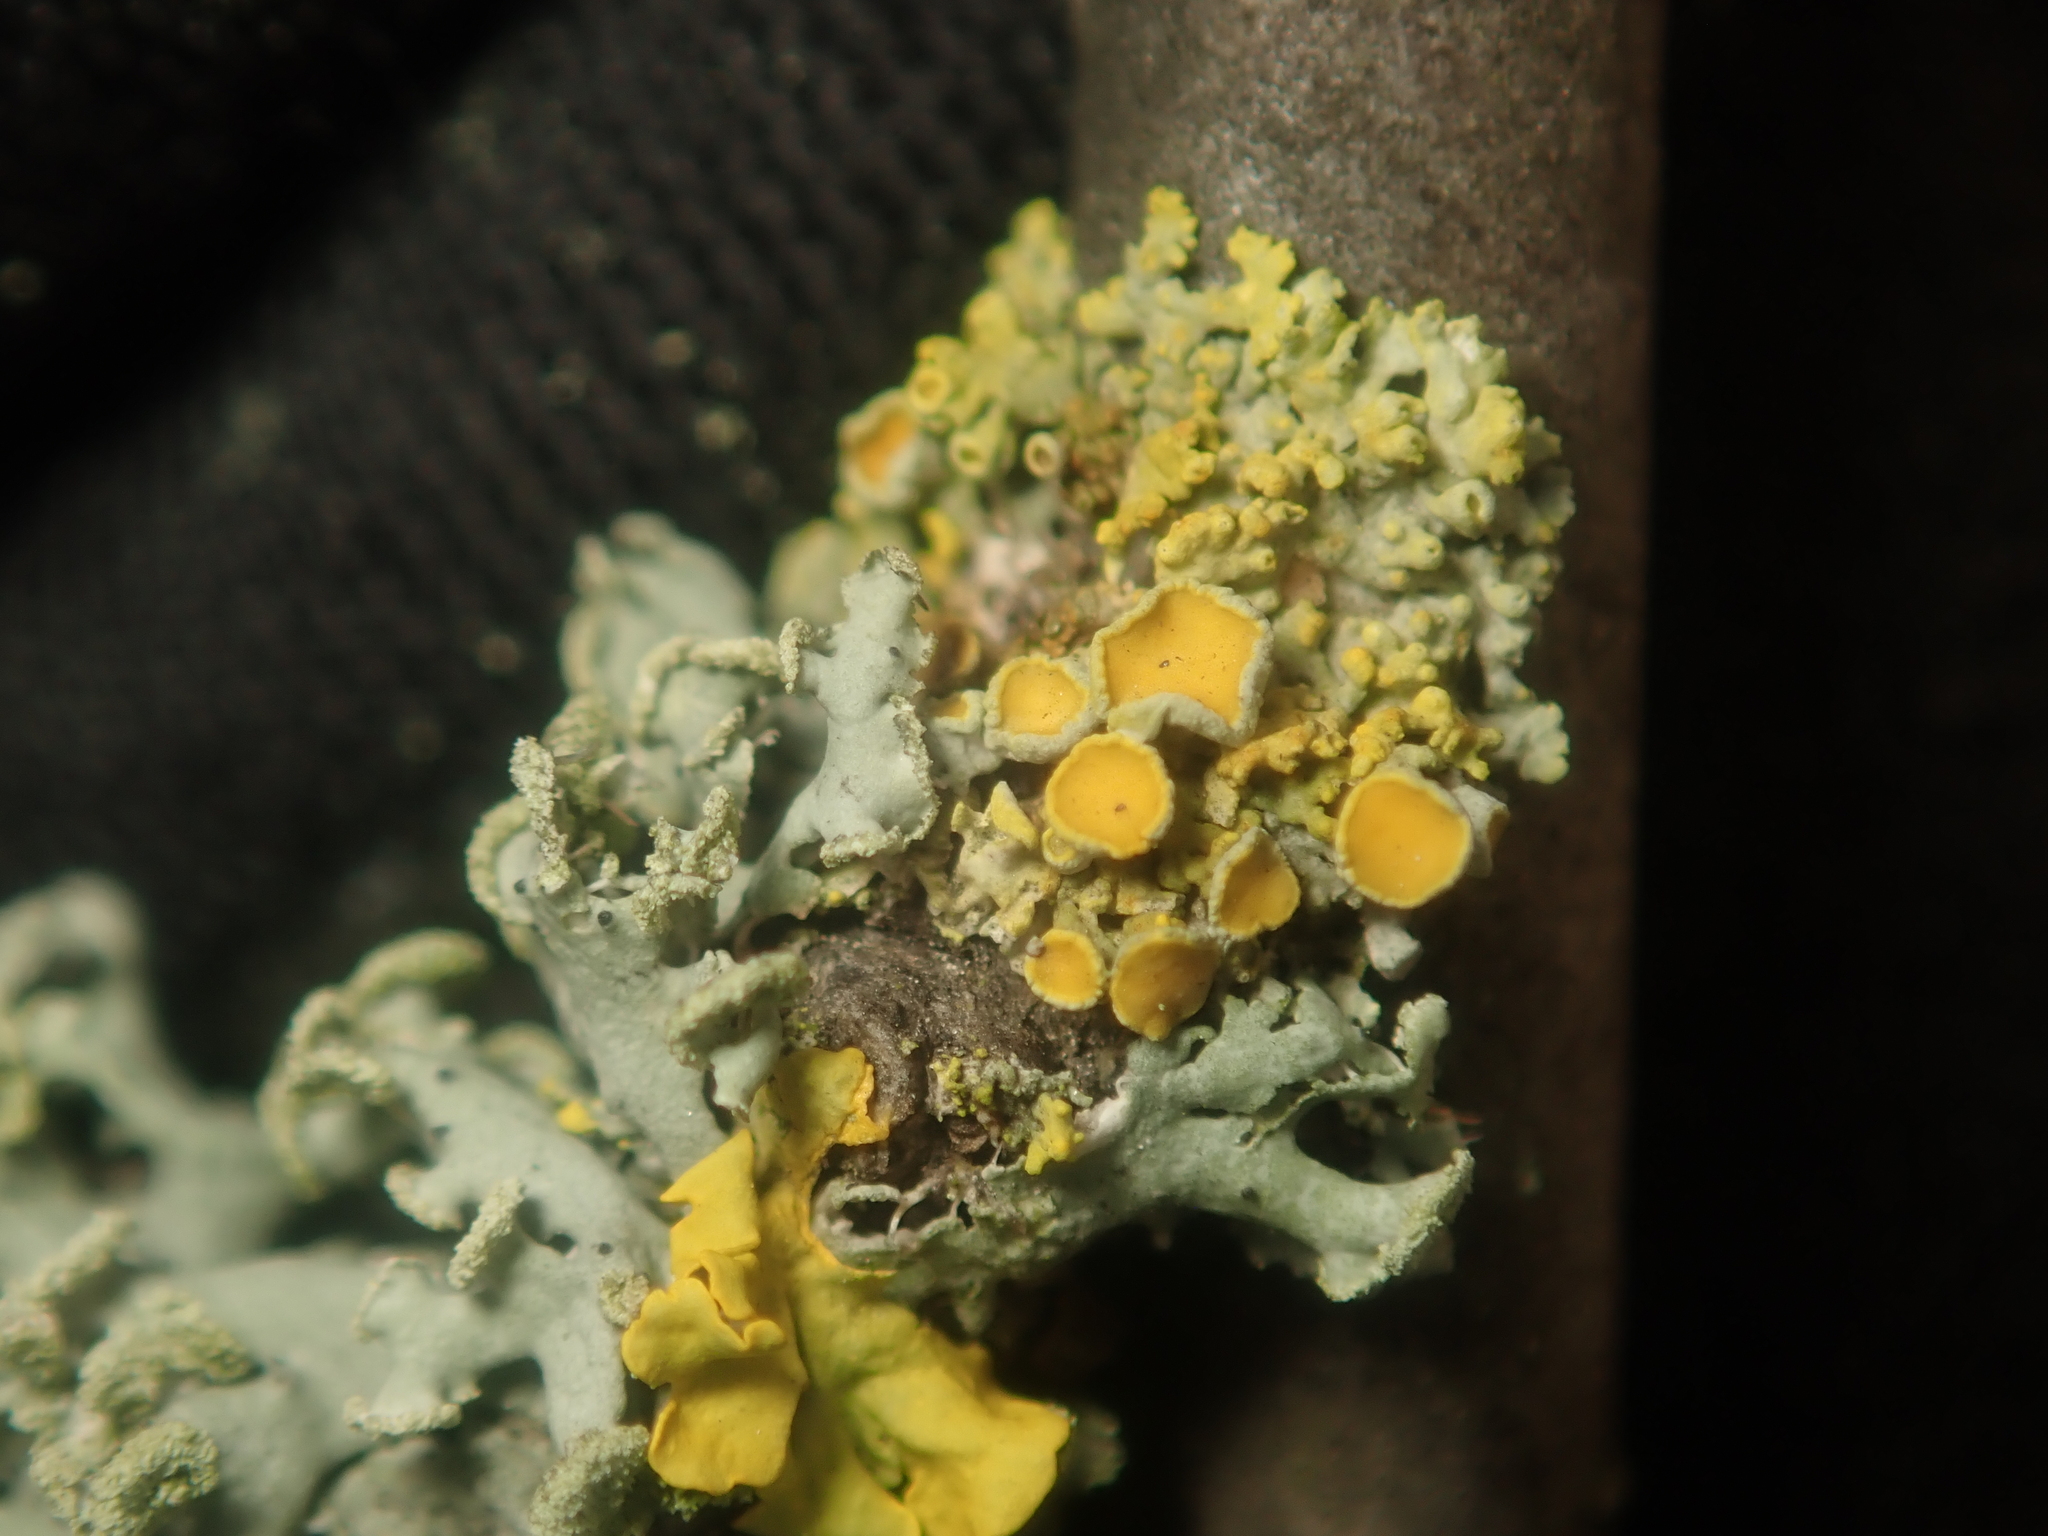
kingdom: Fungi
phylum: Ascomycota
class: Lecanoromycetes
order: Teloschistales
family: Teloschistaceae
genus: Polycauliona
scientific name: Polycauliona polycarpa
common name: Pin-cushion sunburst lichen
